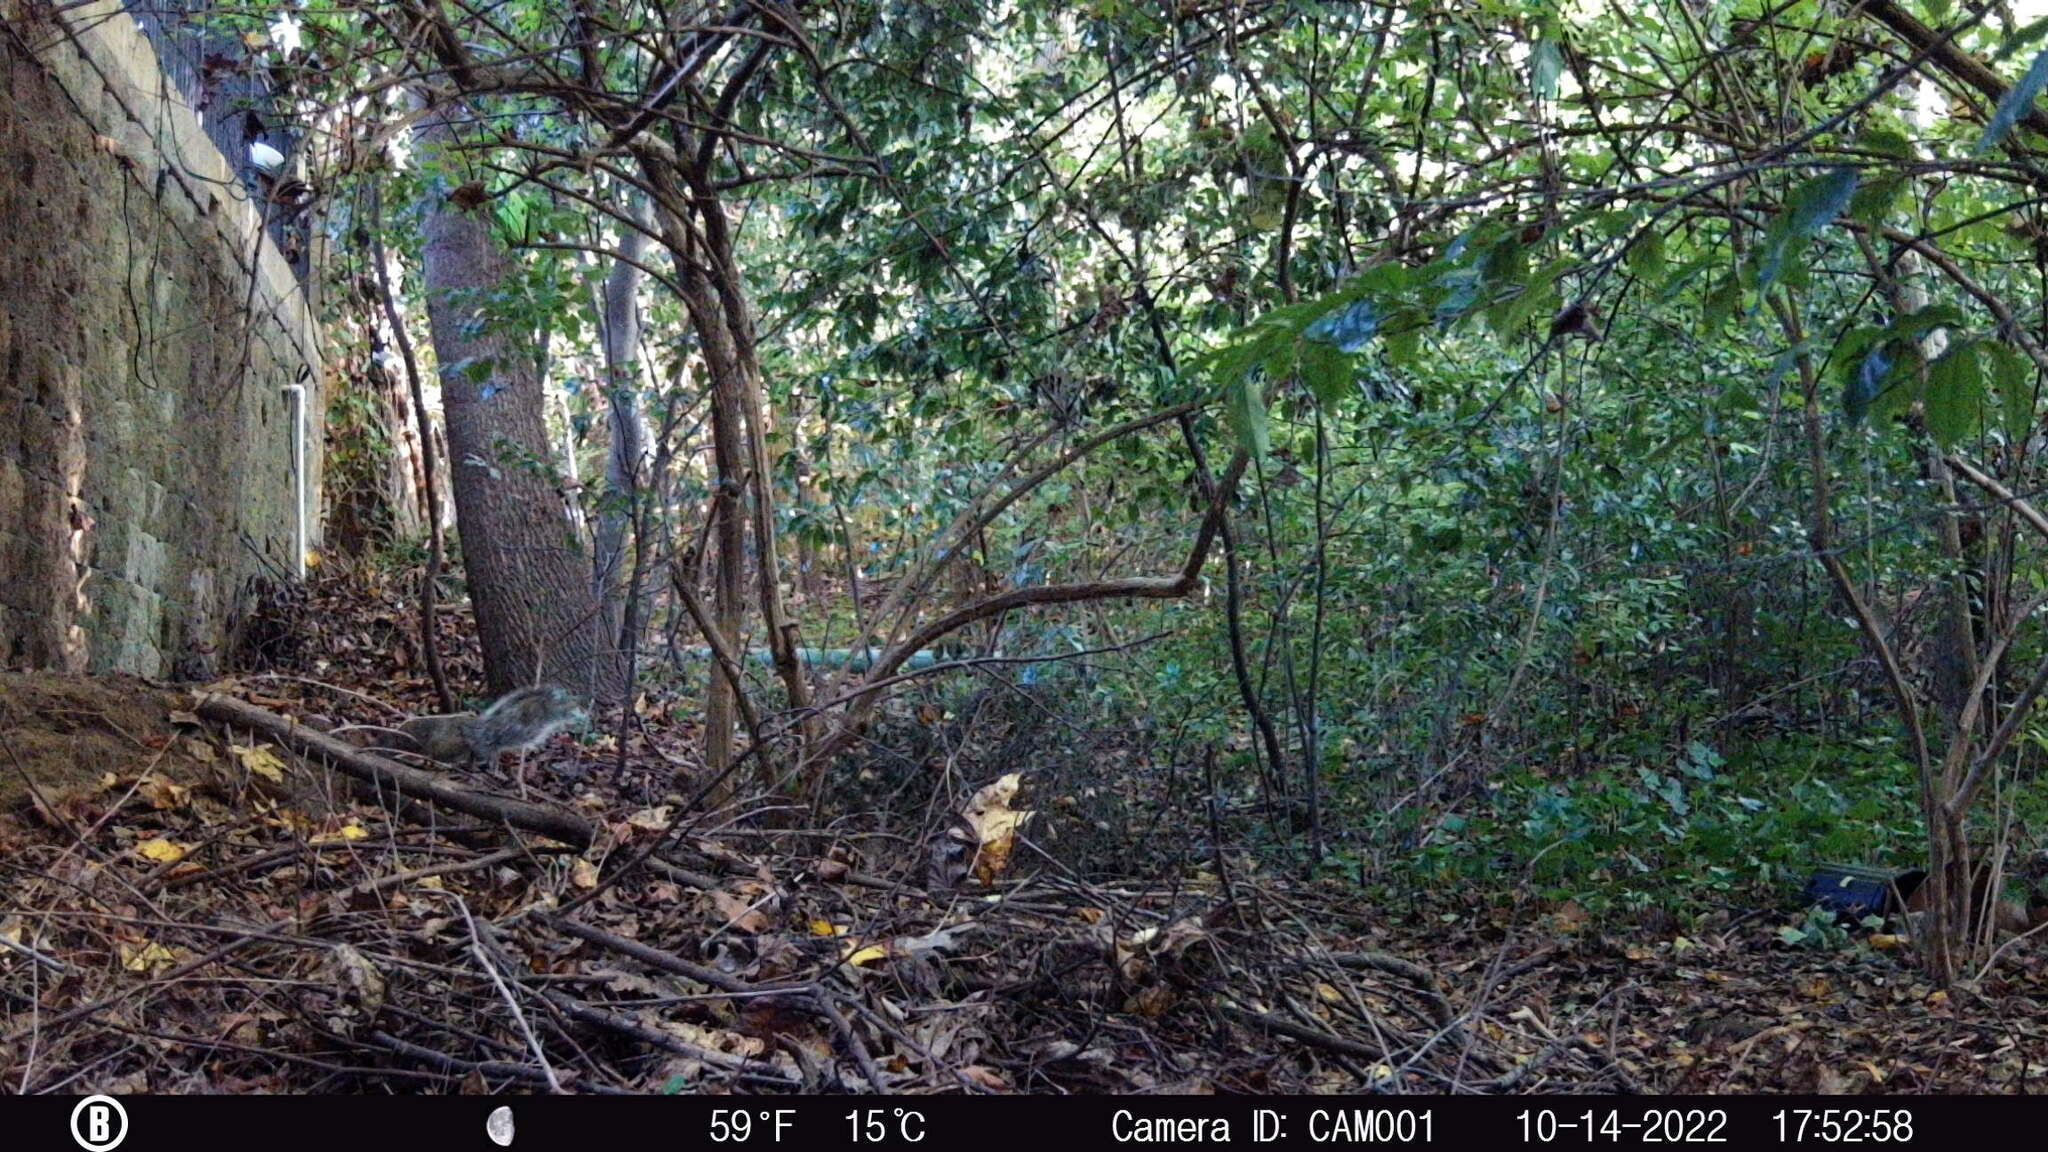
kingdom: Animalia
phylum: Chordata
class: Mammalia
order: Rodentia
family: Sciuridae
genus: Sciurus
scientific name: Sciurus carolinensis
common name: Eastern gray squirrel
